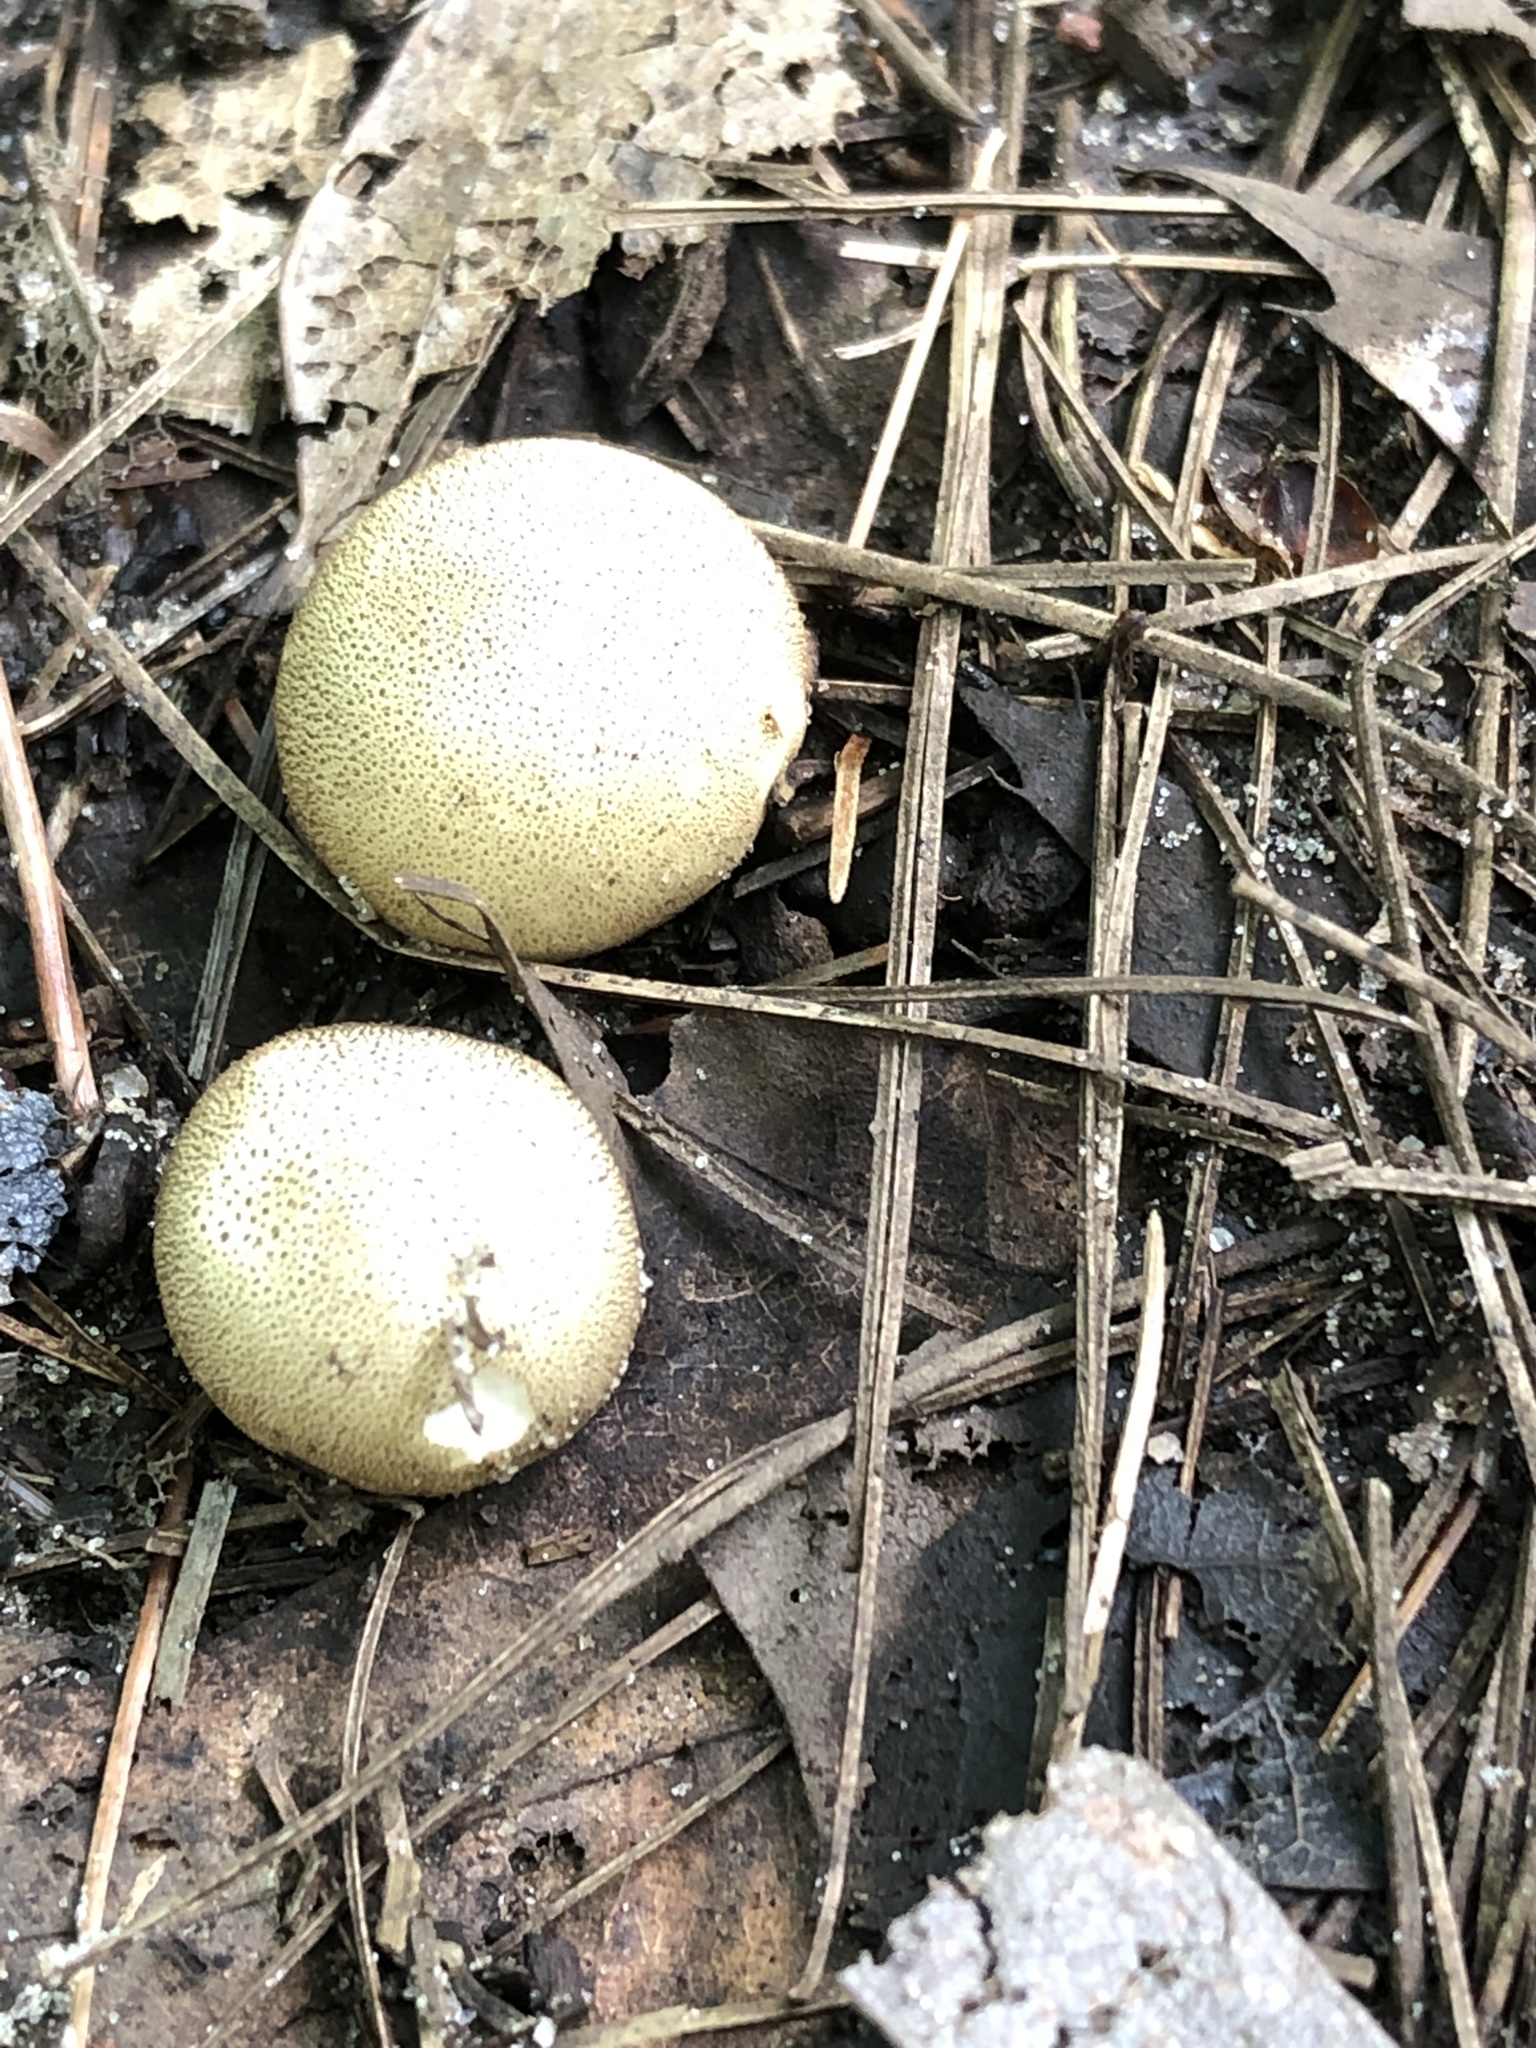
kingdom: Fungi
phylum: Basidiomycota
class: Agaricomycetes
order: Boletales
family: Sclerodermataceae
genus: Scleroderma
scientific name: Scleroderma citrinum
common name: Common earthball
